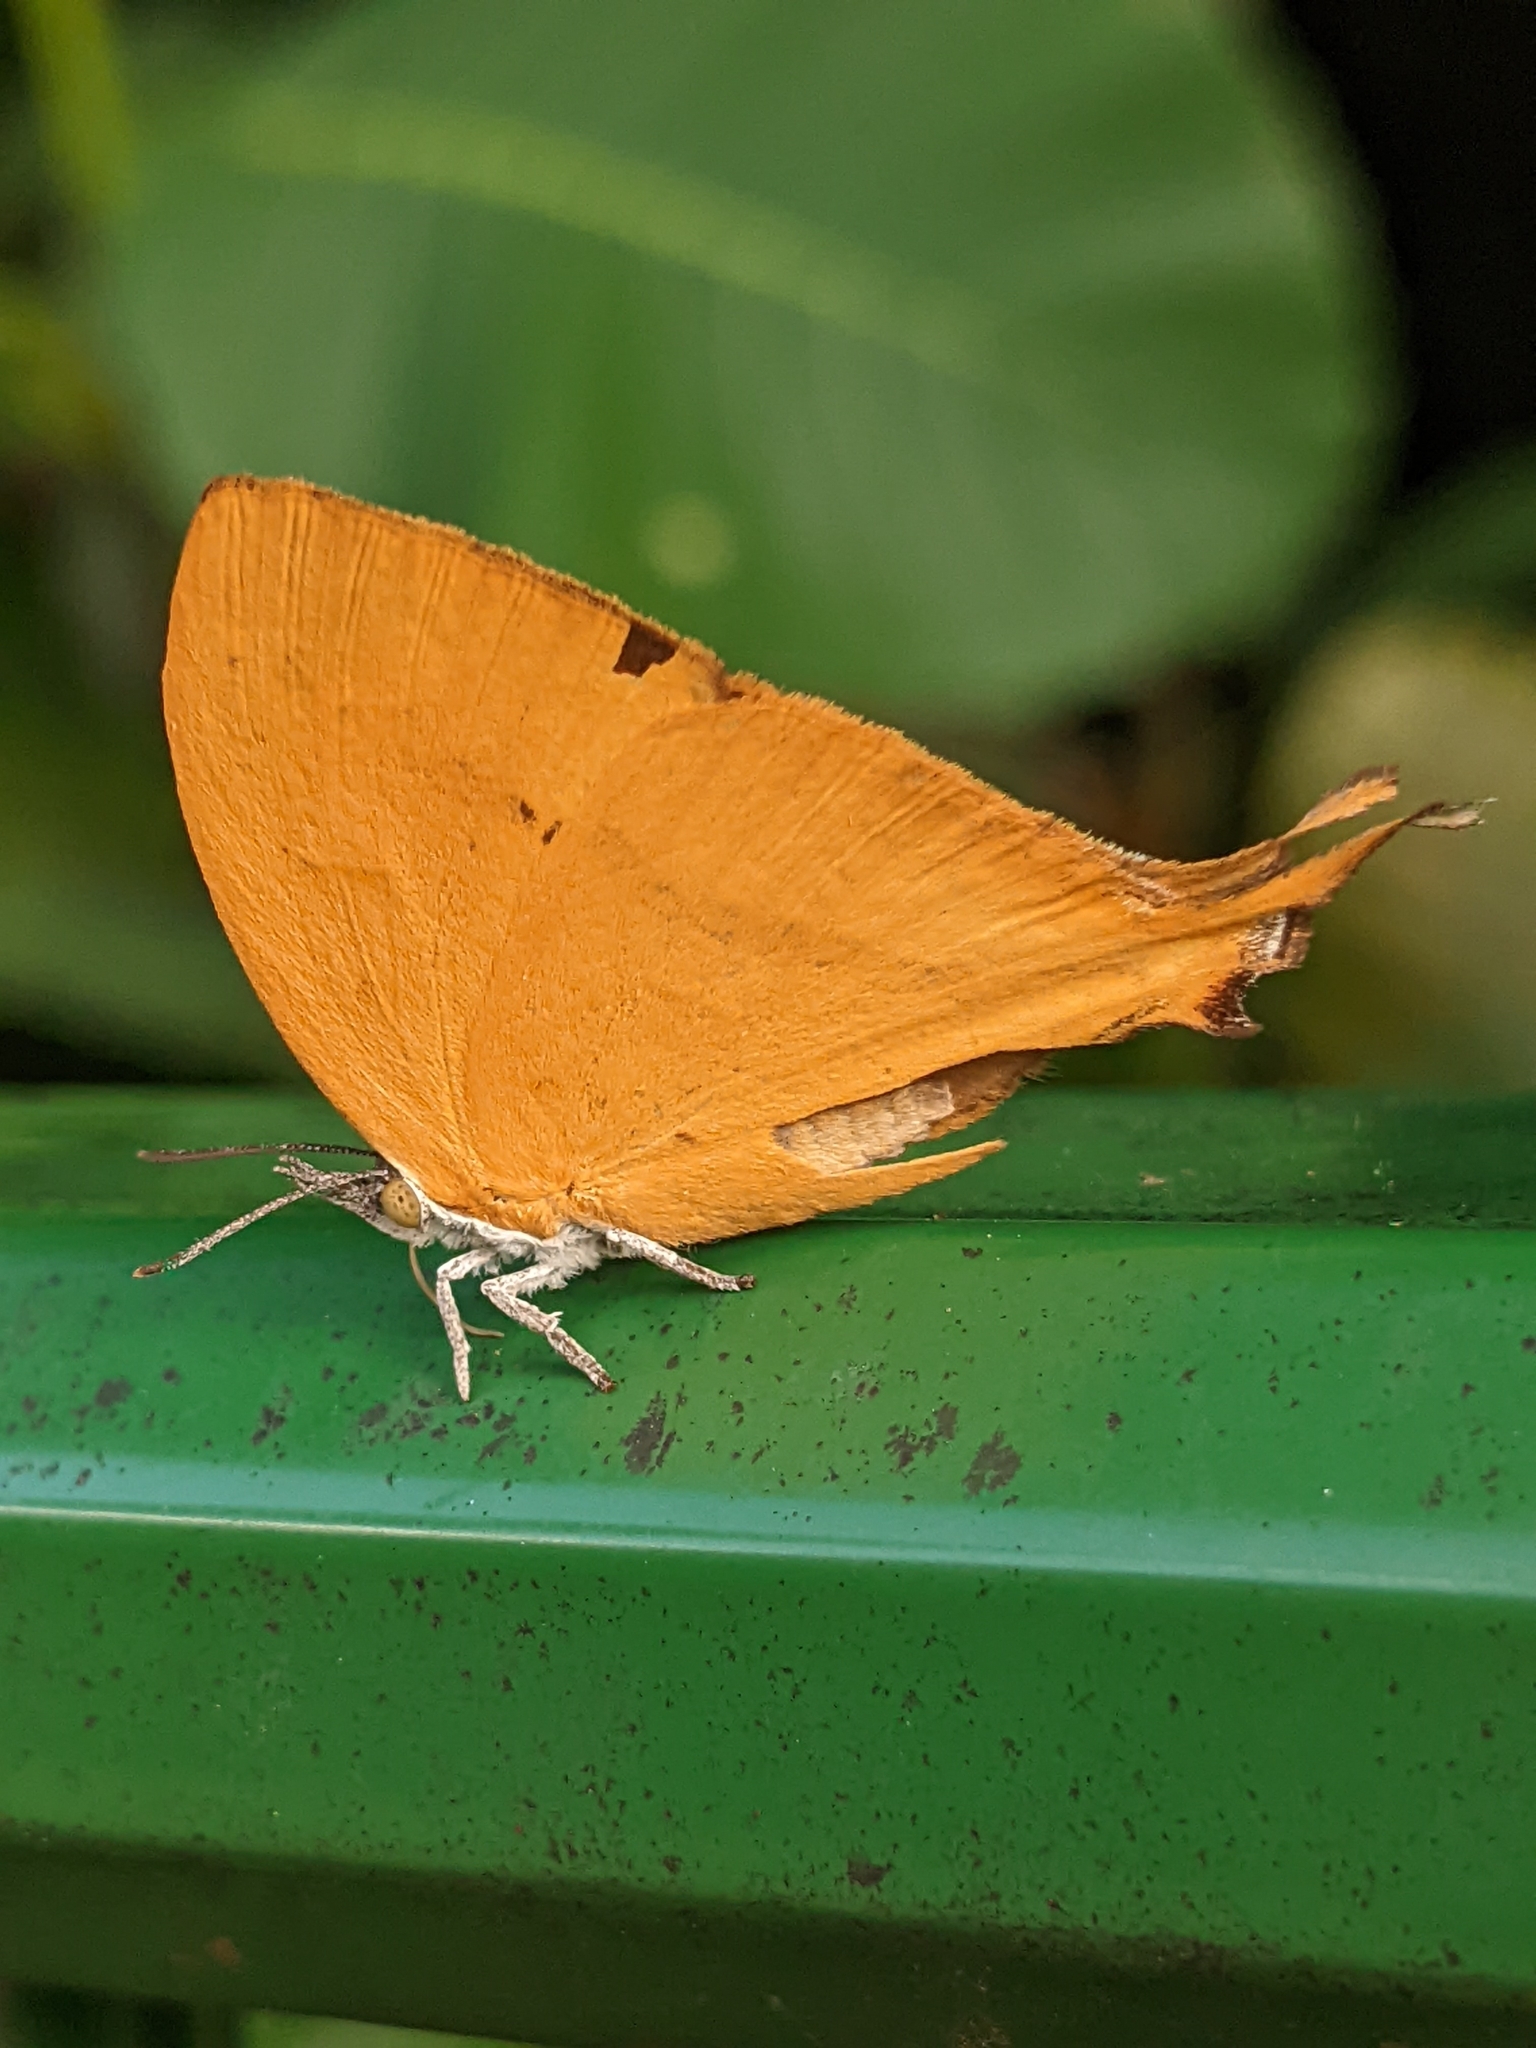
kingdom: Animalia
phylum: Arthropoda
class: Insecta
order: Lepidoptera
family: Lycaenidae
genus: Loxura
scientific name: Loxura atymnus
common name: Common yamfly
